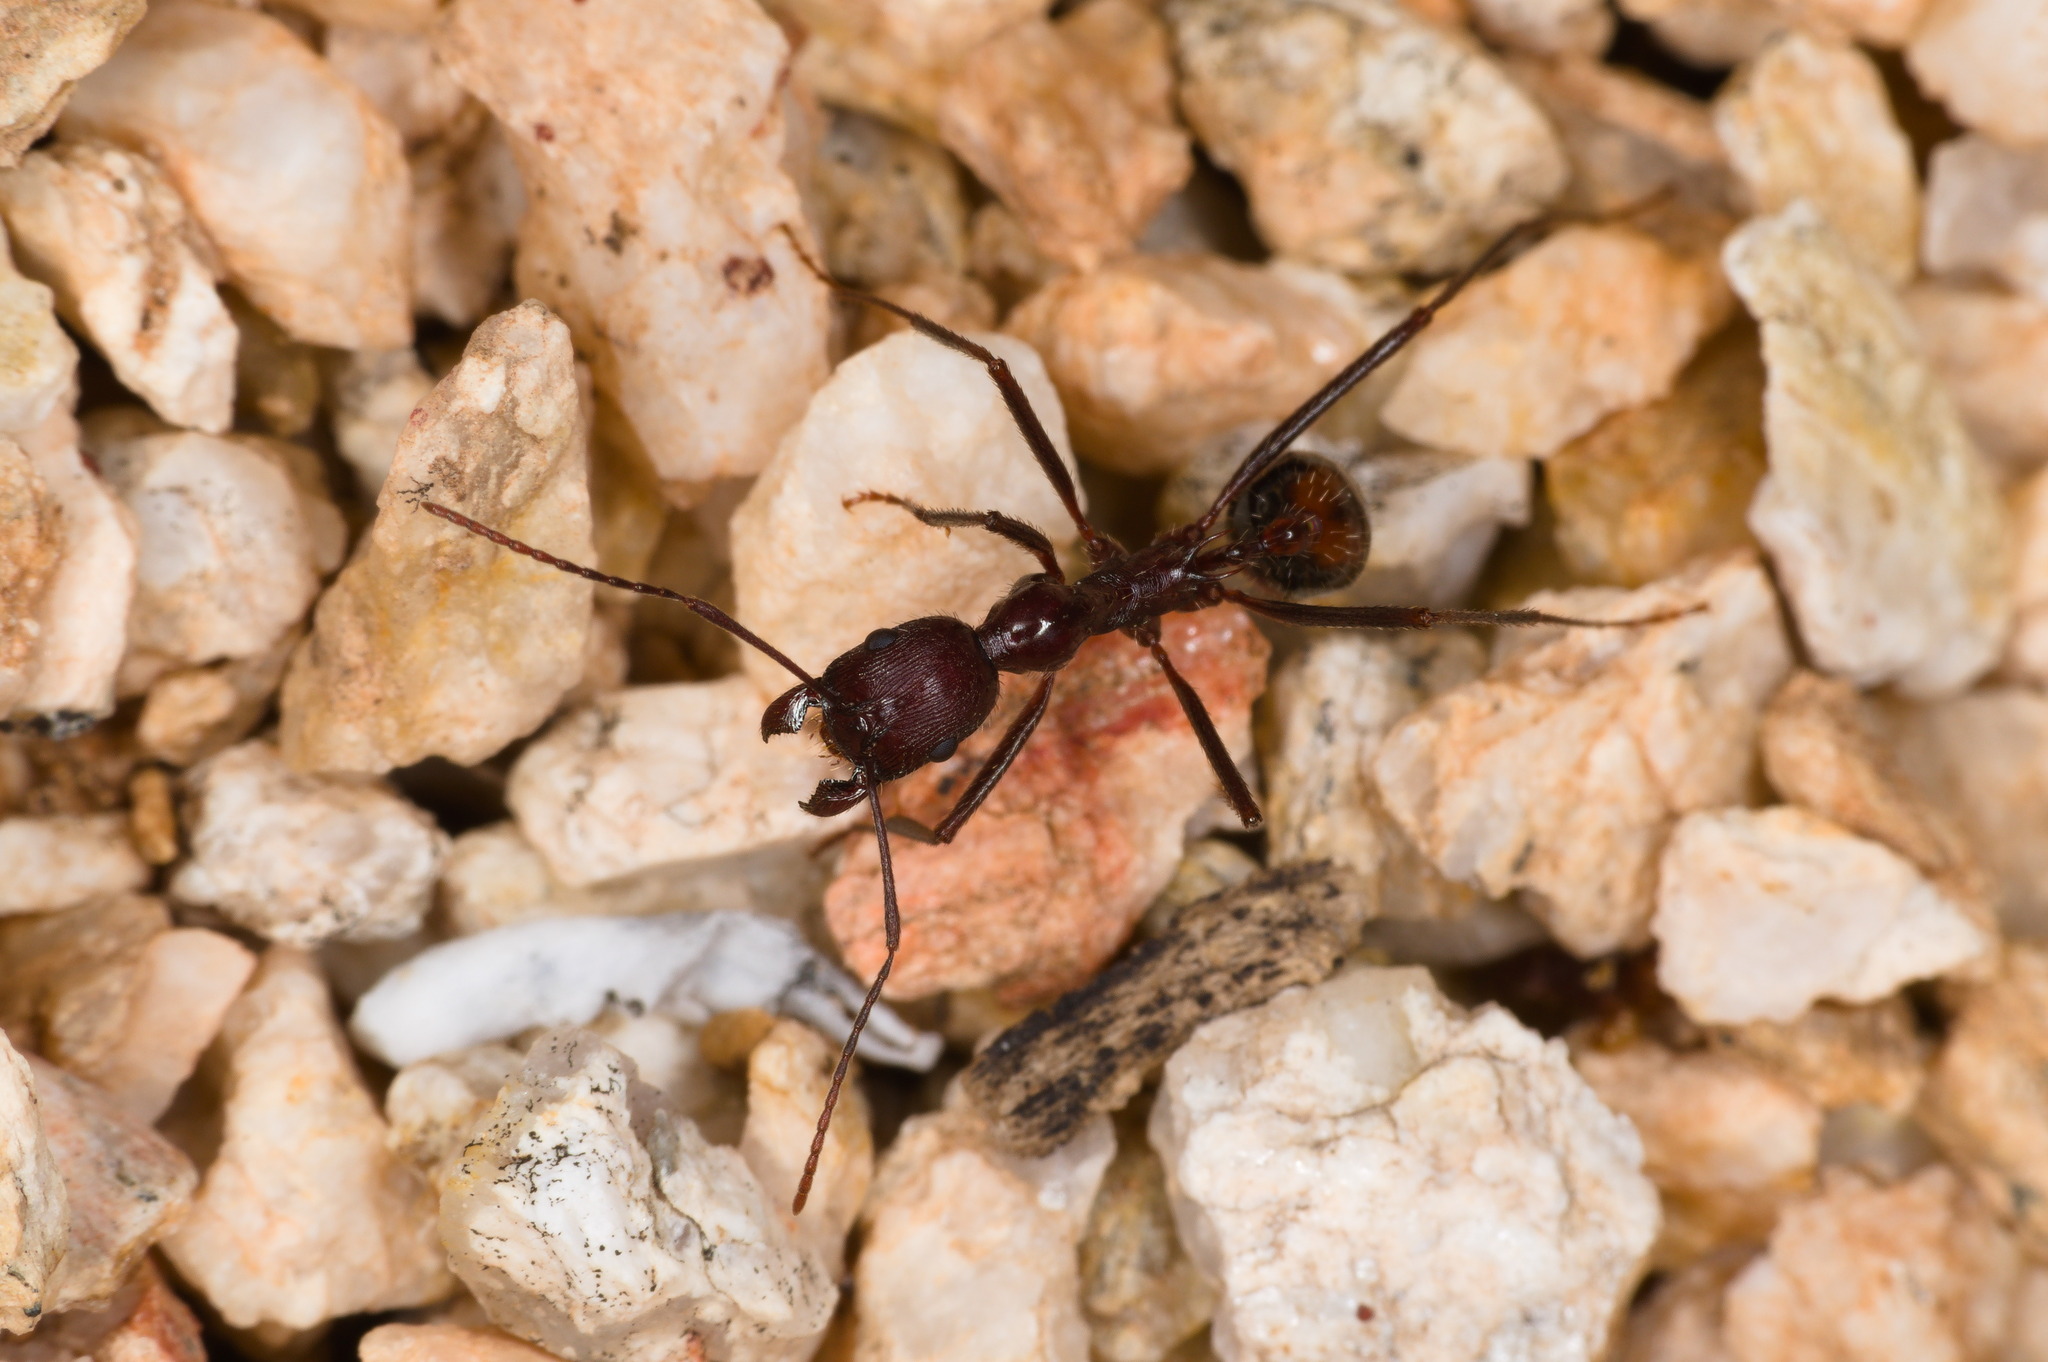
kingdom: Animalia
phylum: Arthropoda
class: Insecta
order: Hymenoptera
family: Formicidae
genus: Novomessor
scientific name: Novomessor cockerelli
